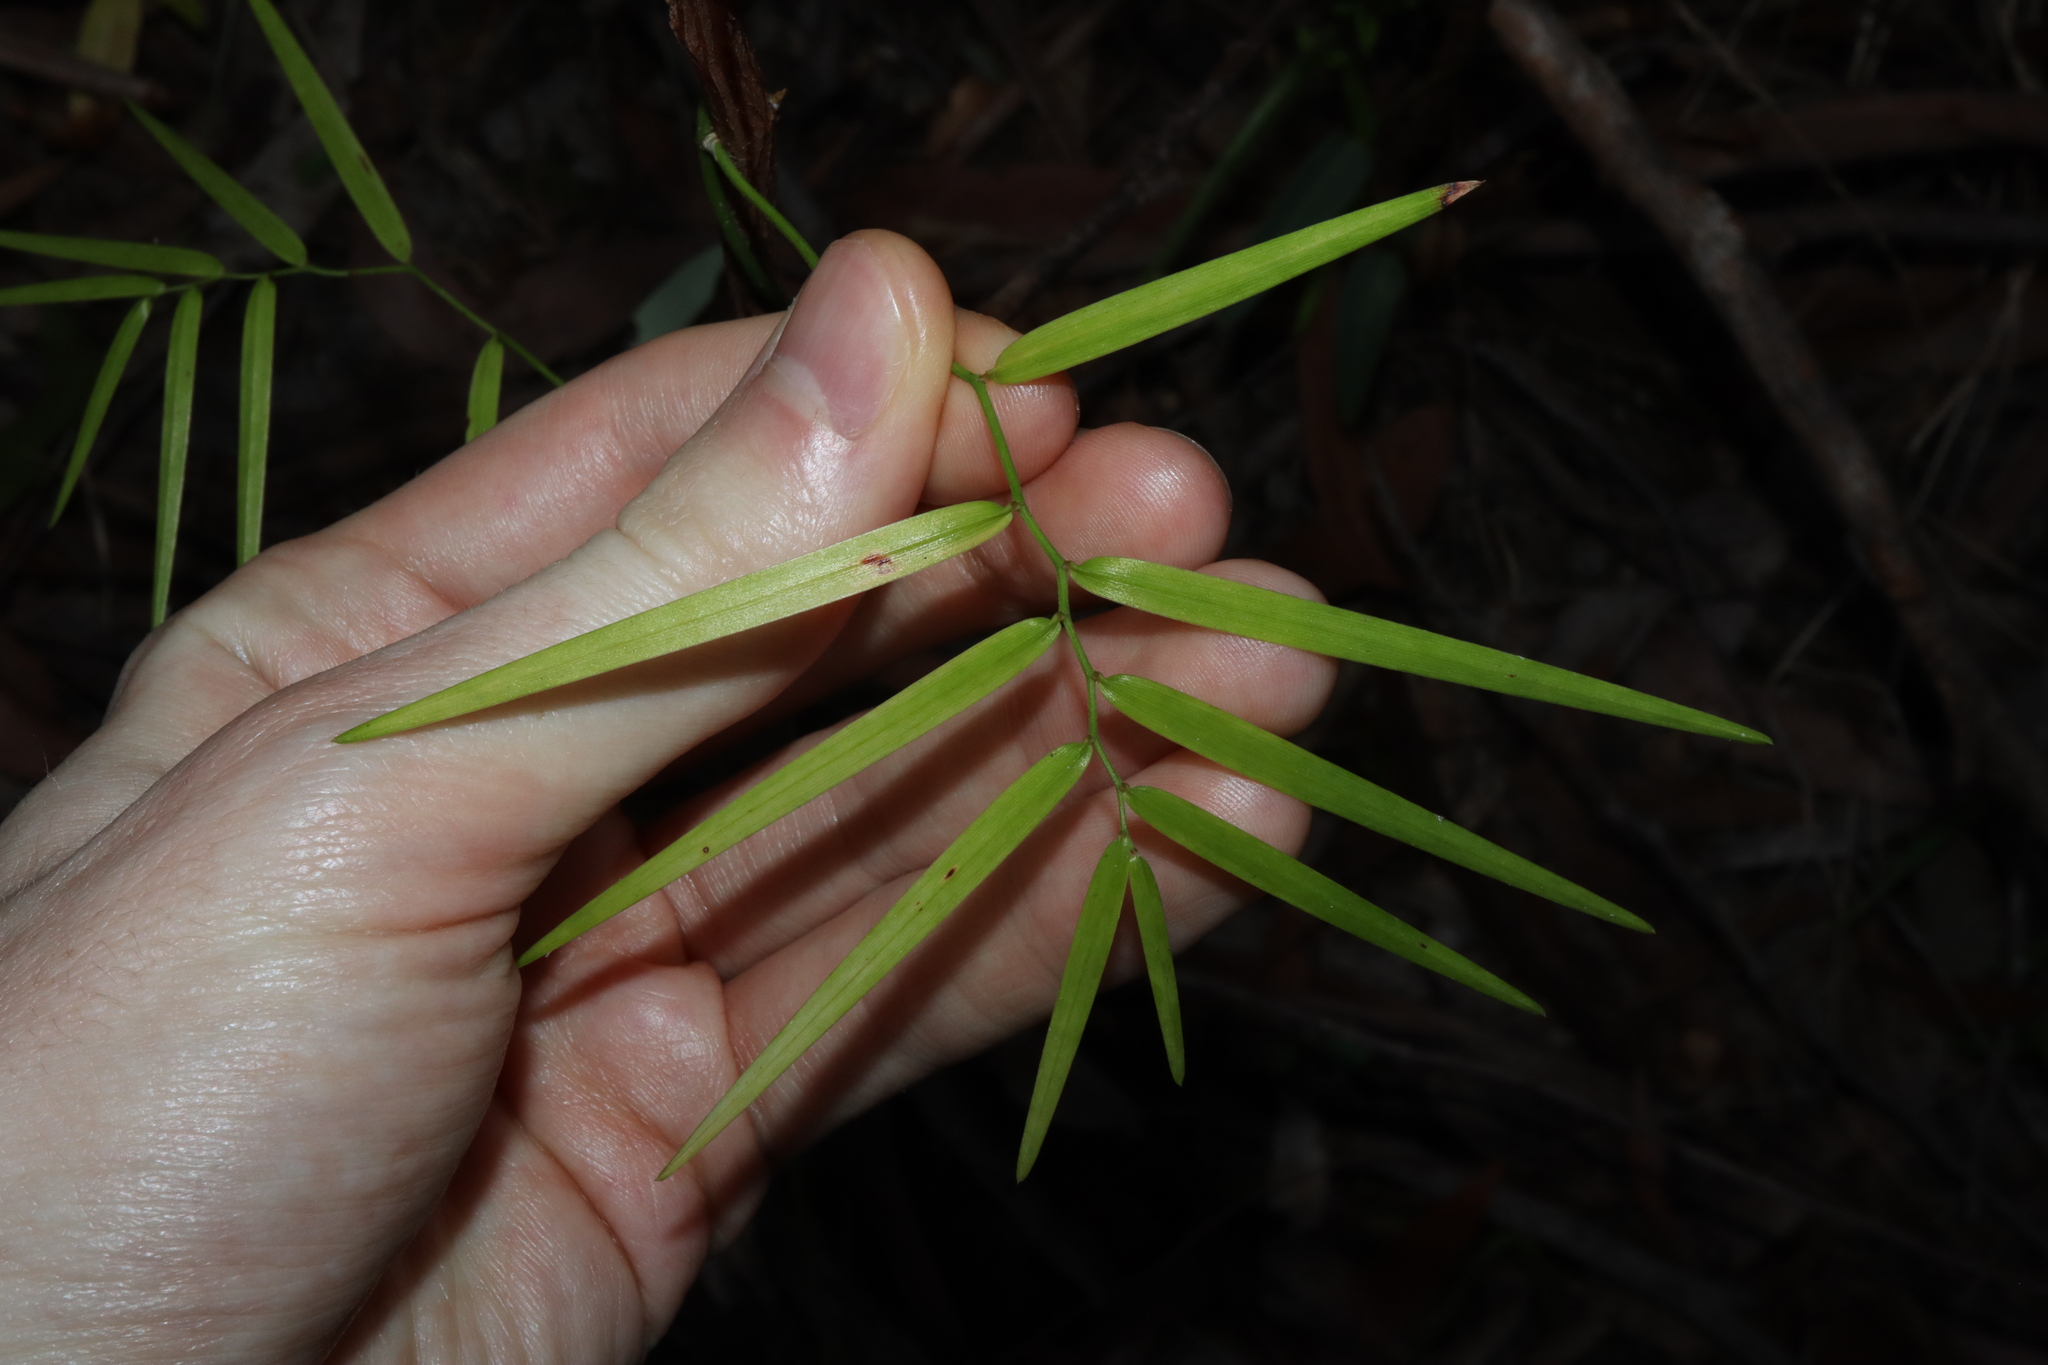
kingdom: Plantae
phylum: Tracheophyta
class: Liliopsida
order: Asparagales
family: Asphodelaceae
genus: Geitonoplesium
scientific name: Geitonoplesium cymosum
